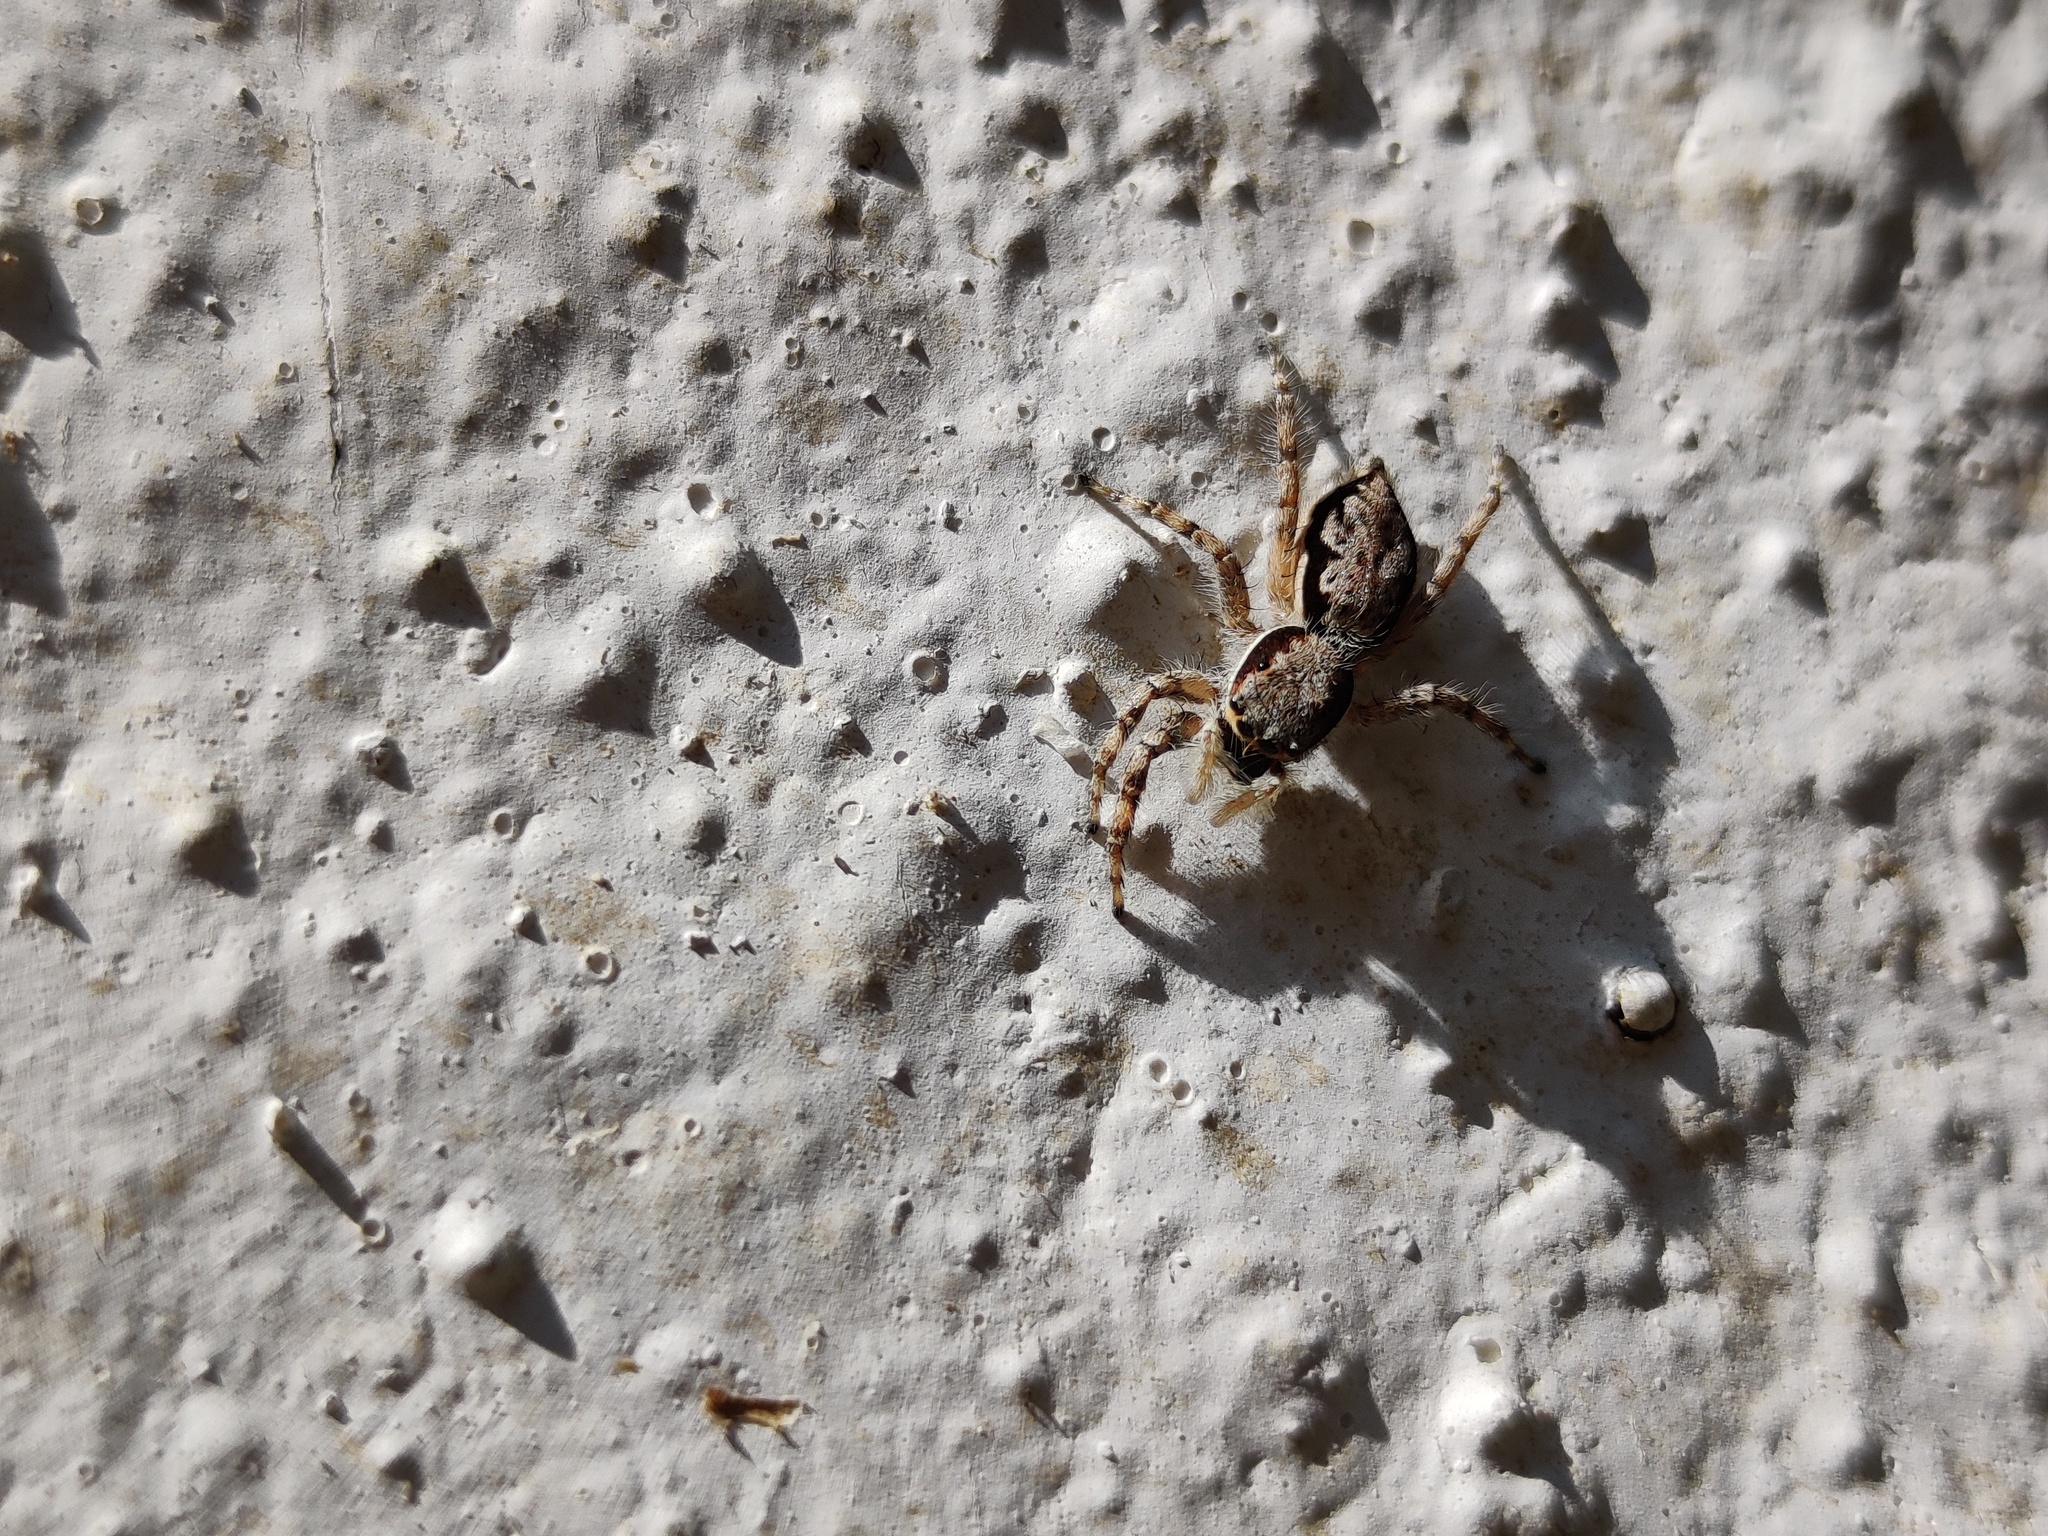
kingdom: Animalia
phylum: Arthropoda
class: Arachnida
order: Araneae
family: Salticidae
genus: Menemerus
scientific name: Menemerus bivittatus
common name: Gray wall jumper
